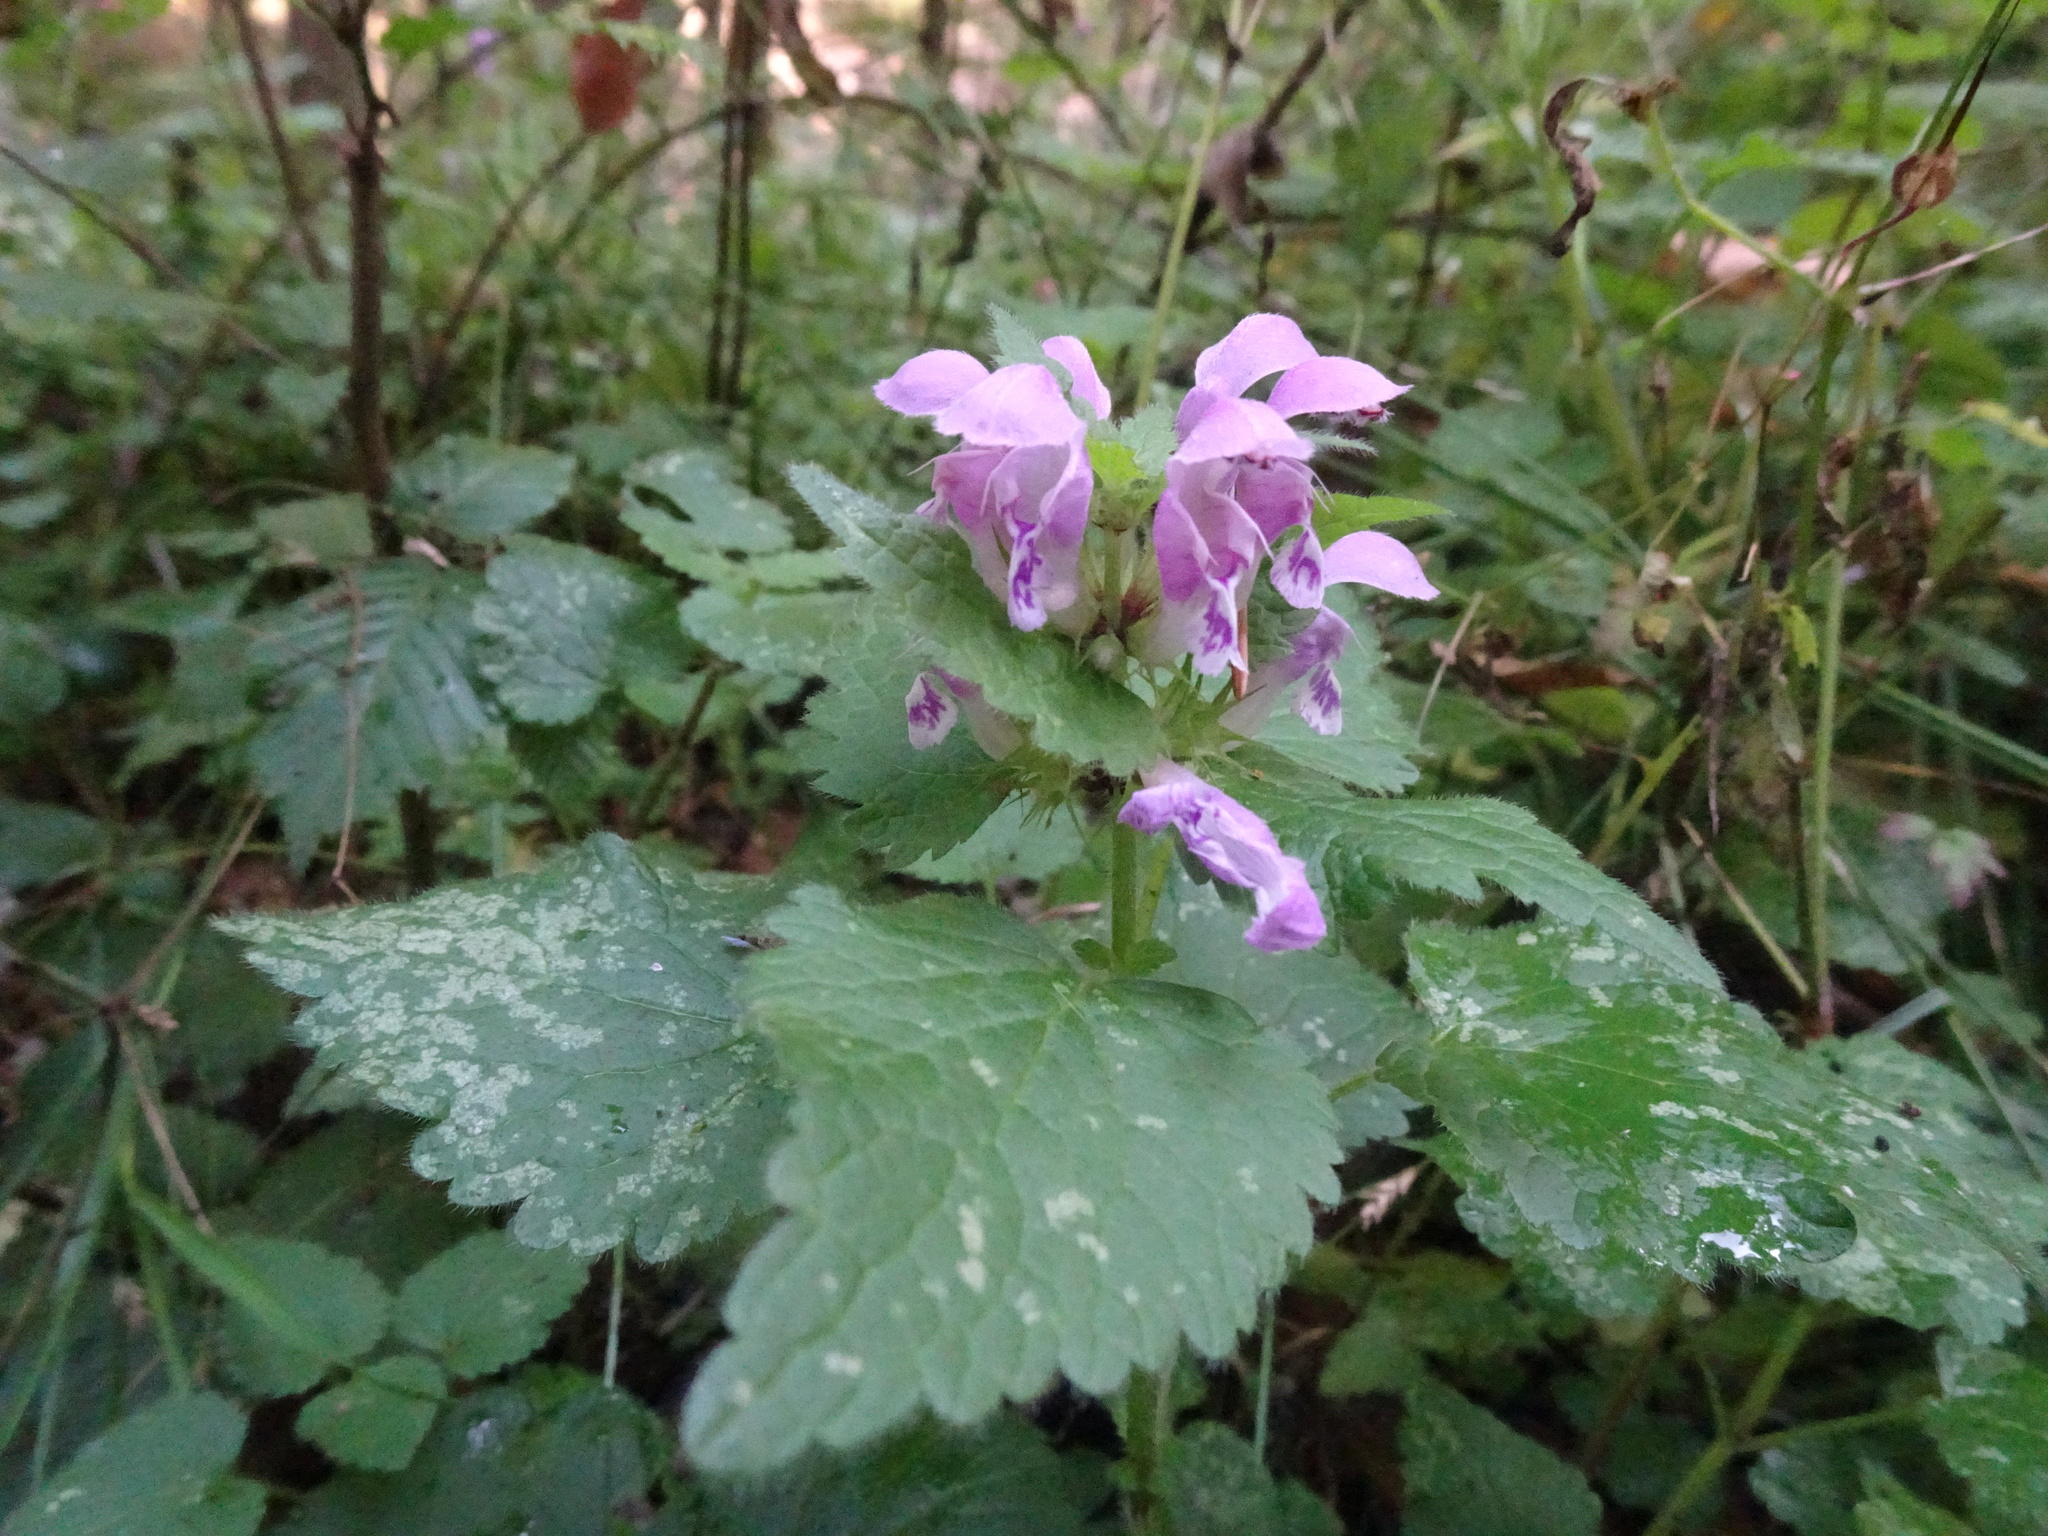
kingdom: Plantae
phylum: Tracheophyta
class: Magnoliopsida
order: Lamiales
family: Lamiaceae
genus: Lamium
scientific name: Lamium maculatum
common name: Spotted dead-nettle
